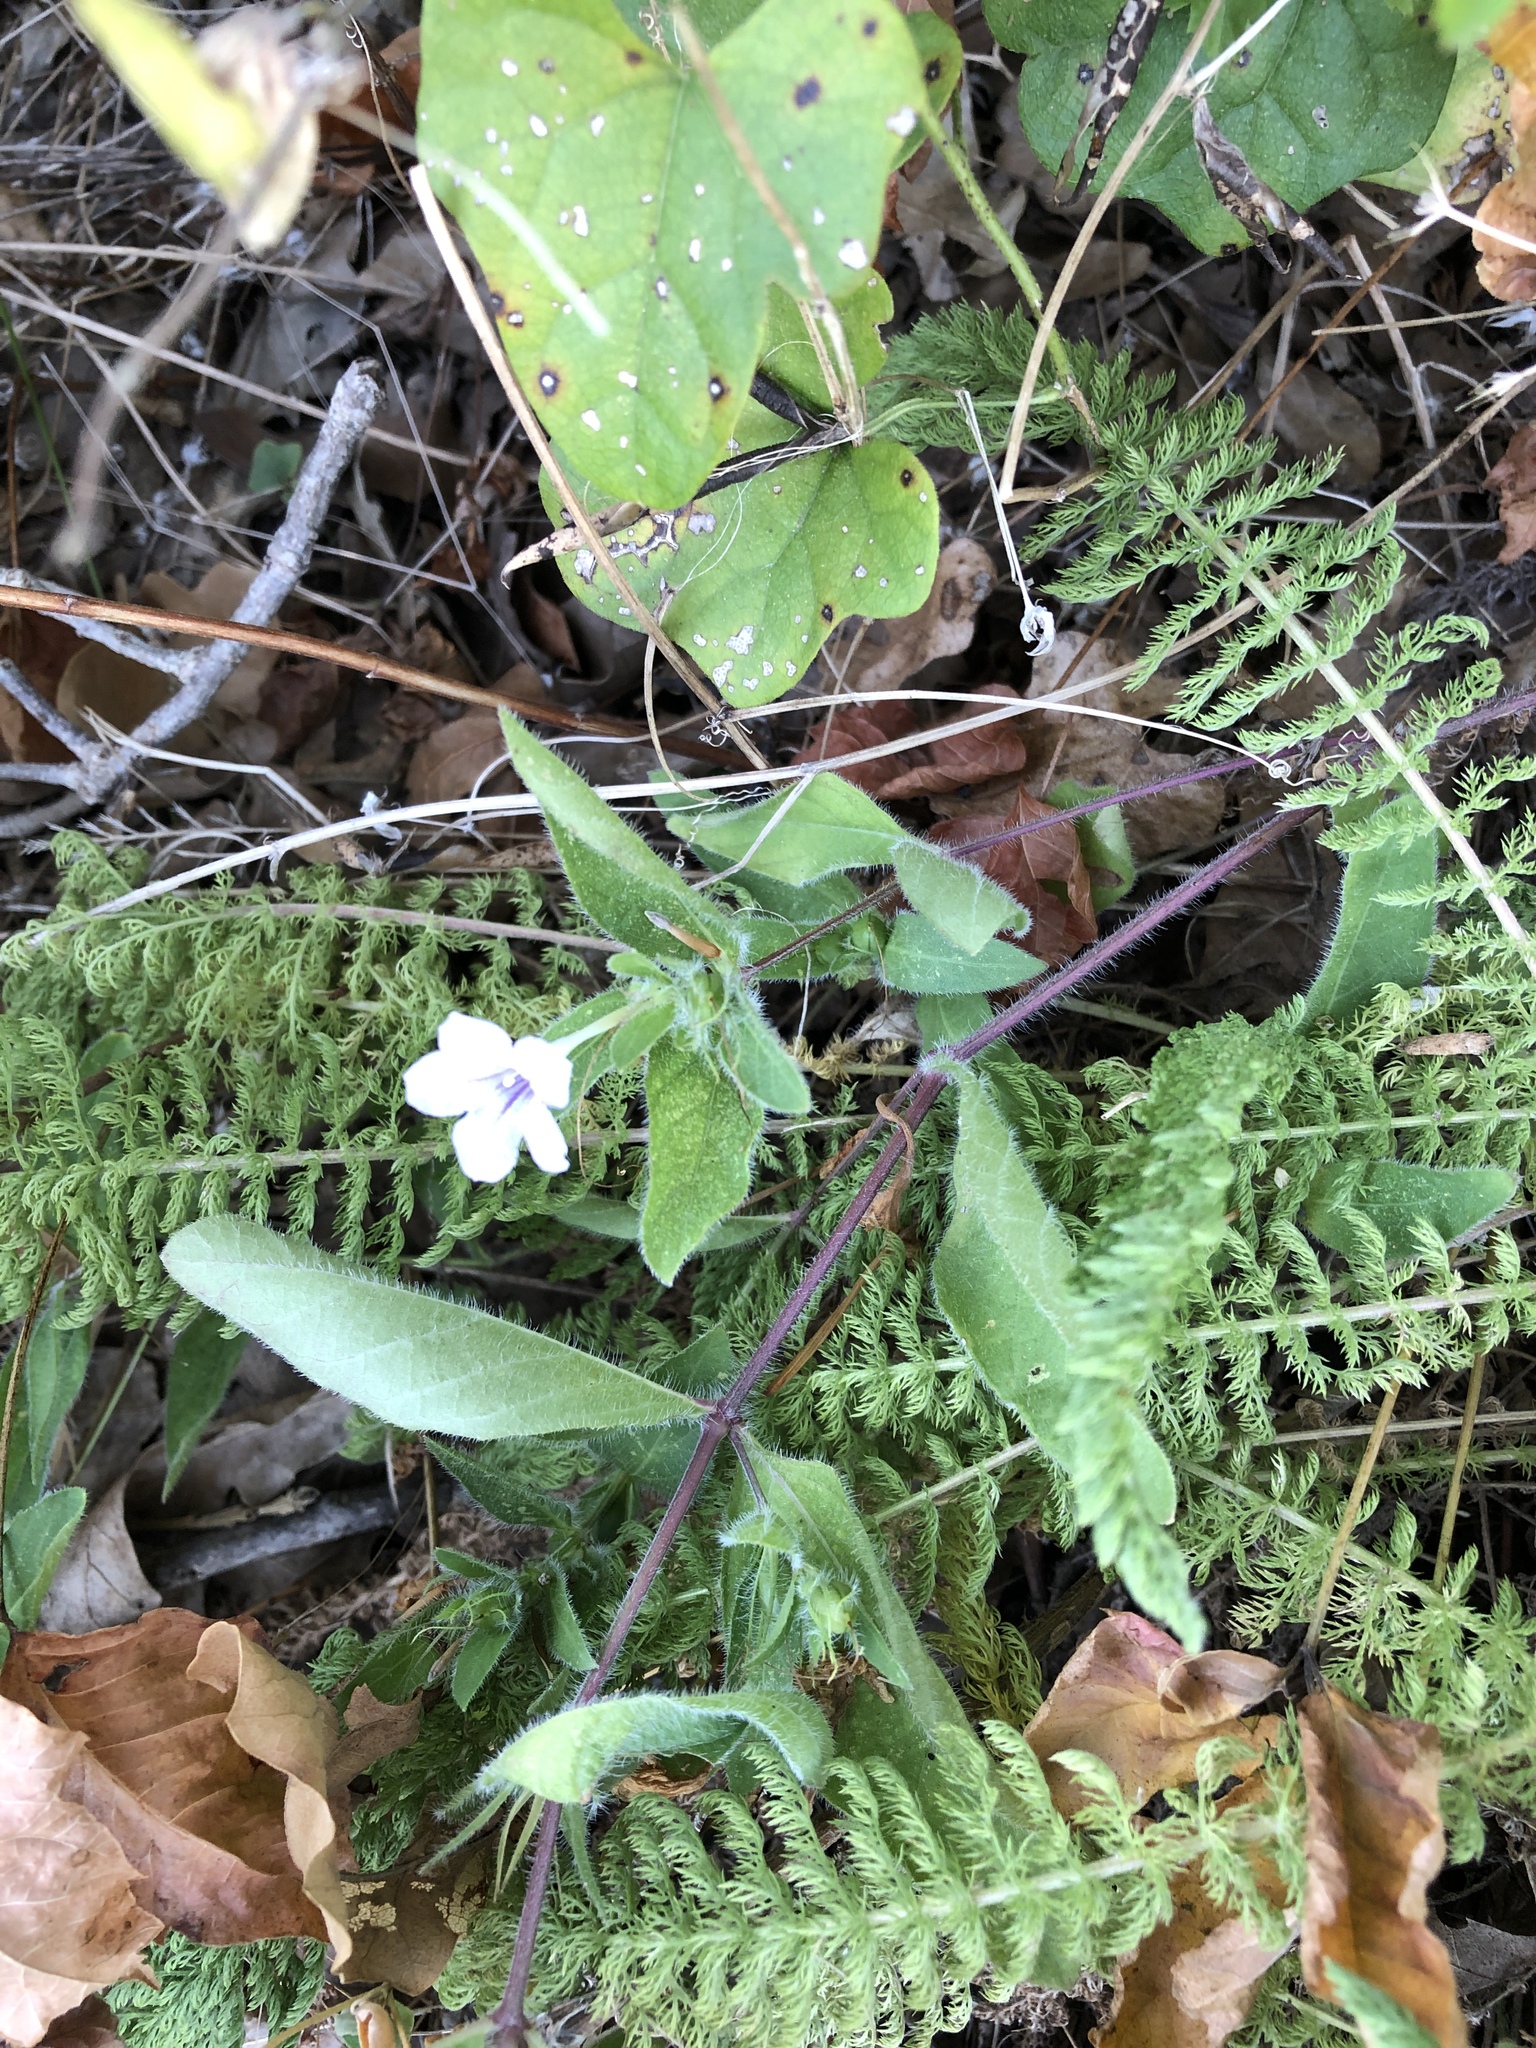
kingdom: Plantae
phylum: Tracheophyta
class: Magnoliopsida
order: Lamiales
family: Acanthaceae
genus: Ruellia
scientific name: Ruellia humilis
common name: Fringe-leaf ruellia
